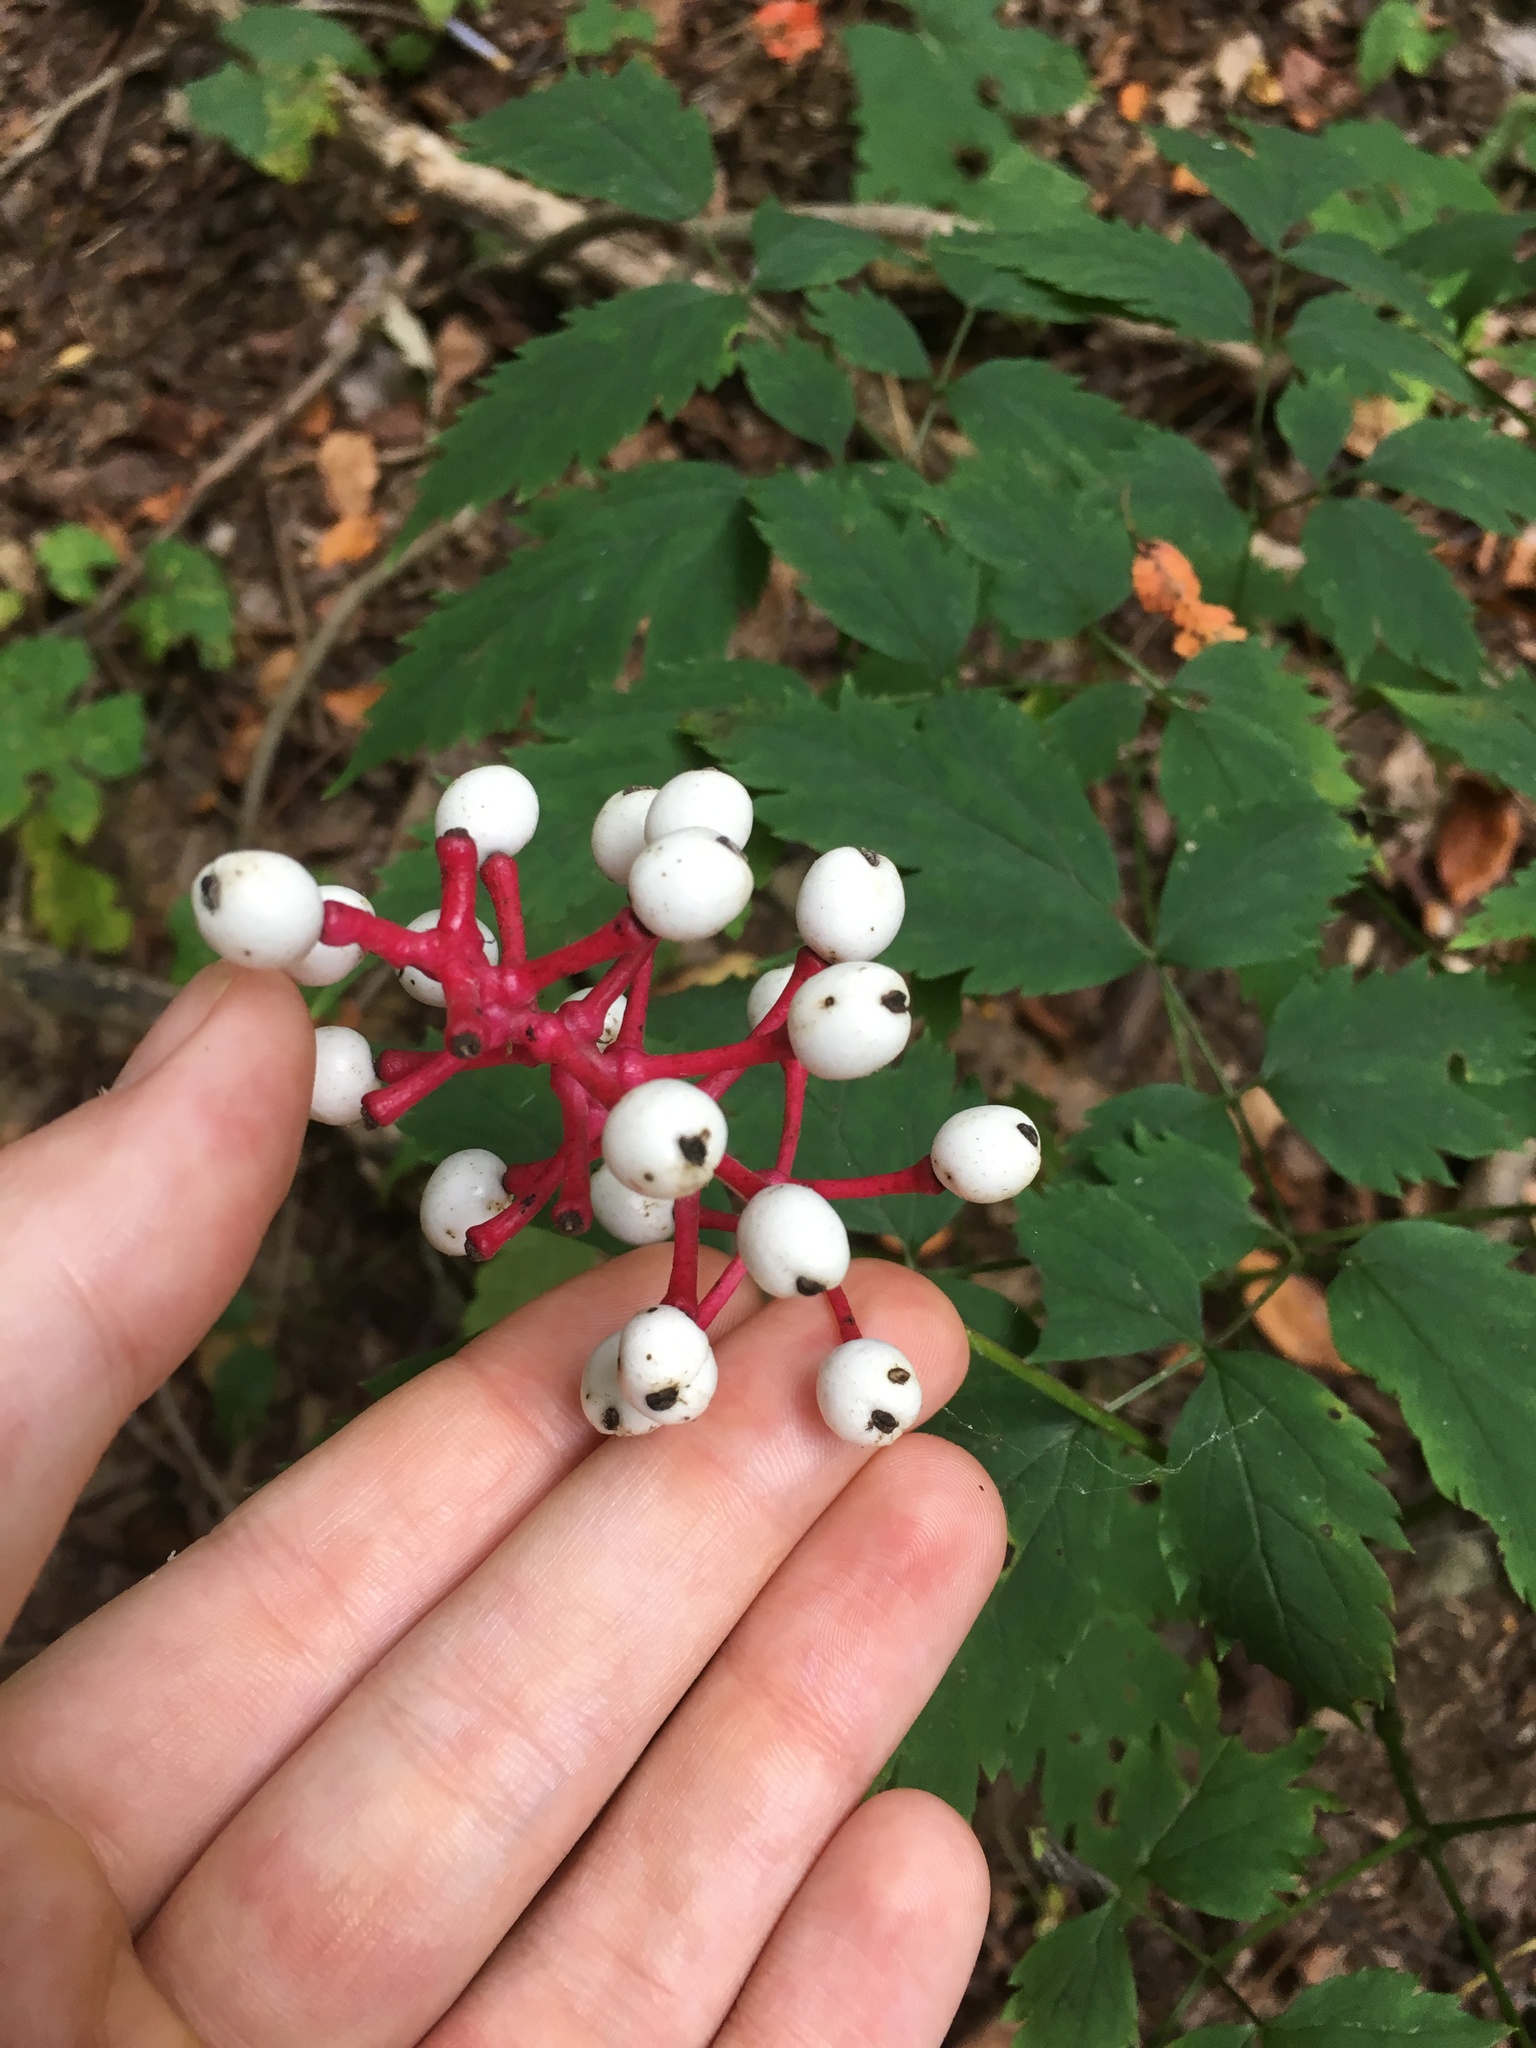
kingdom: Plantae
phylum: Tracheophyta
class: Magnoliopsida
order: Ranunculales
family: Ranunculaceae
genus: Actaea
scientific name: Actaea pachypoda
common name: Doll's-eyes
